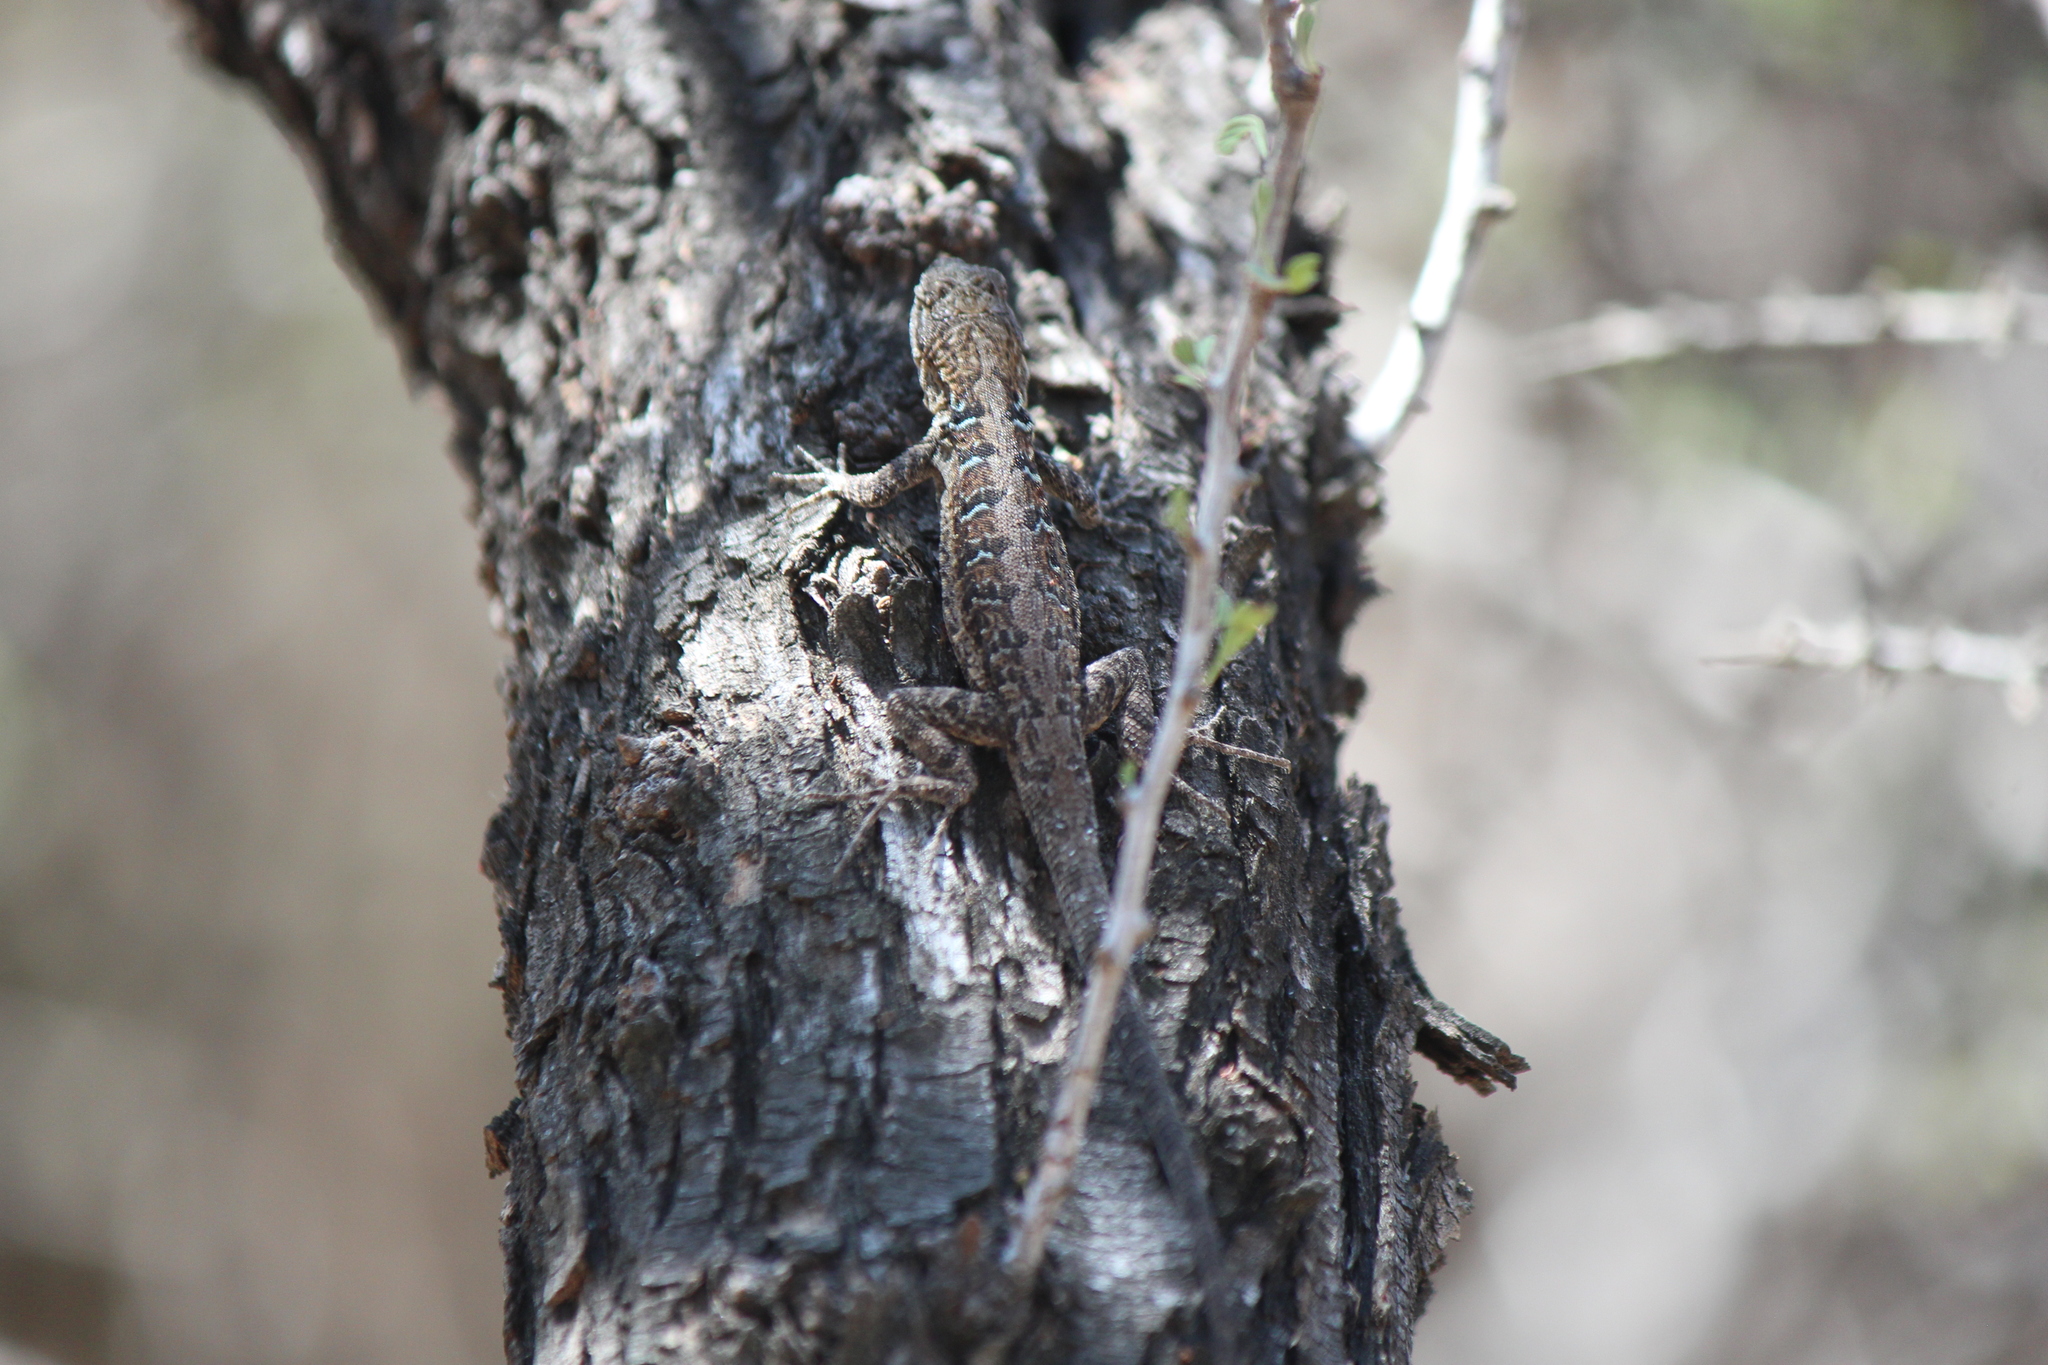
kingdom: Animalia
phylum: Chordata
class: Squamata
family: Phrynosomatidae
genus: Urosaurus
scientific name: Urosaurus nigricauda
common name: Baja california brush lizard
